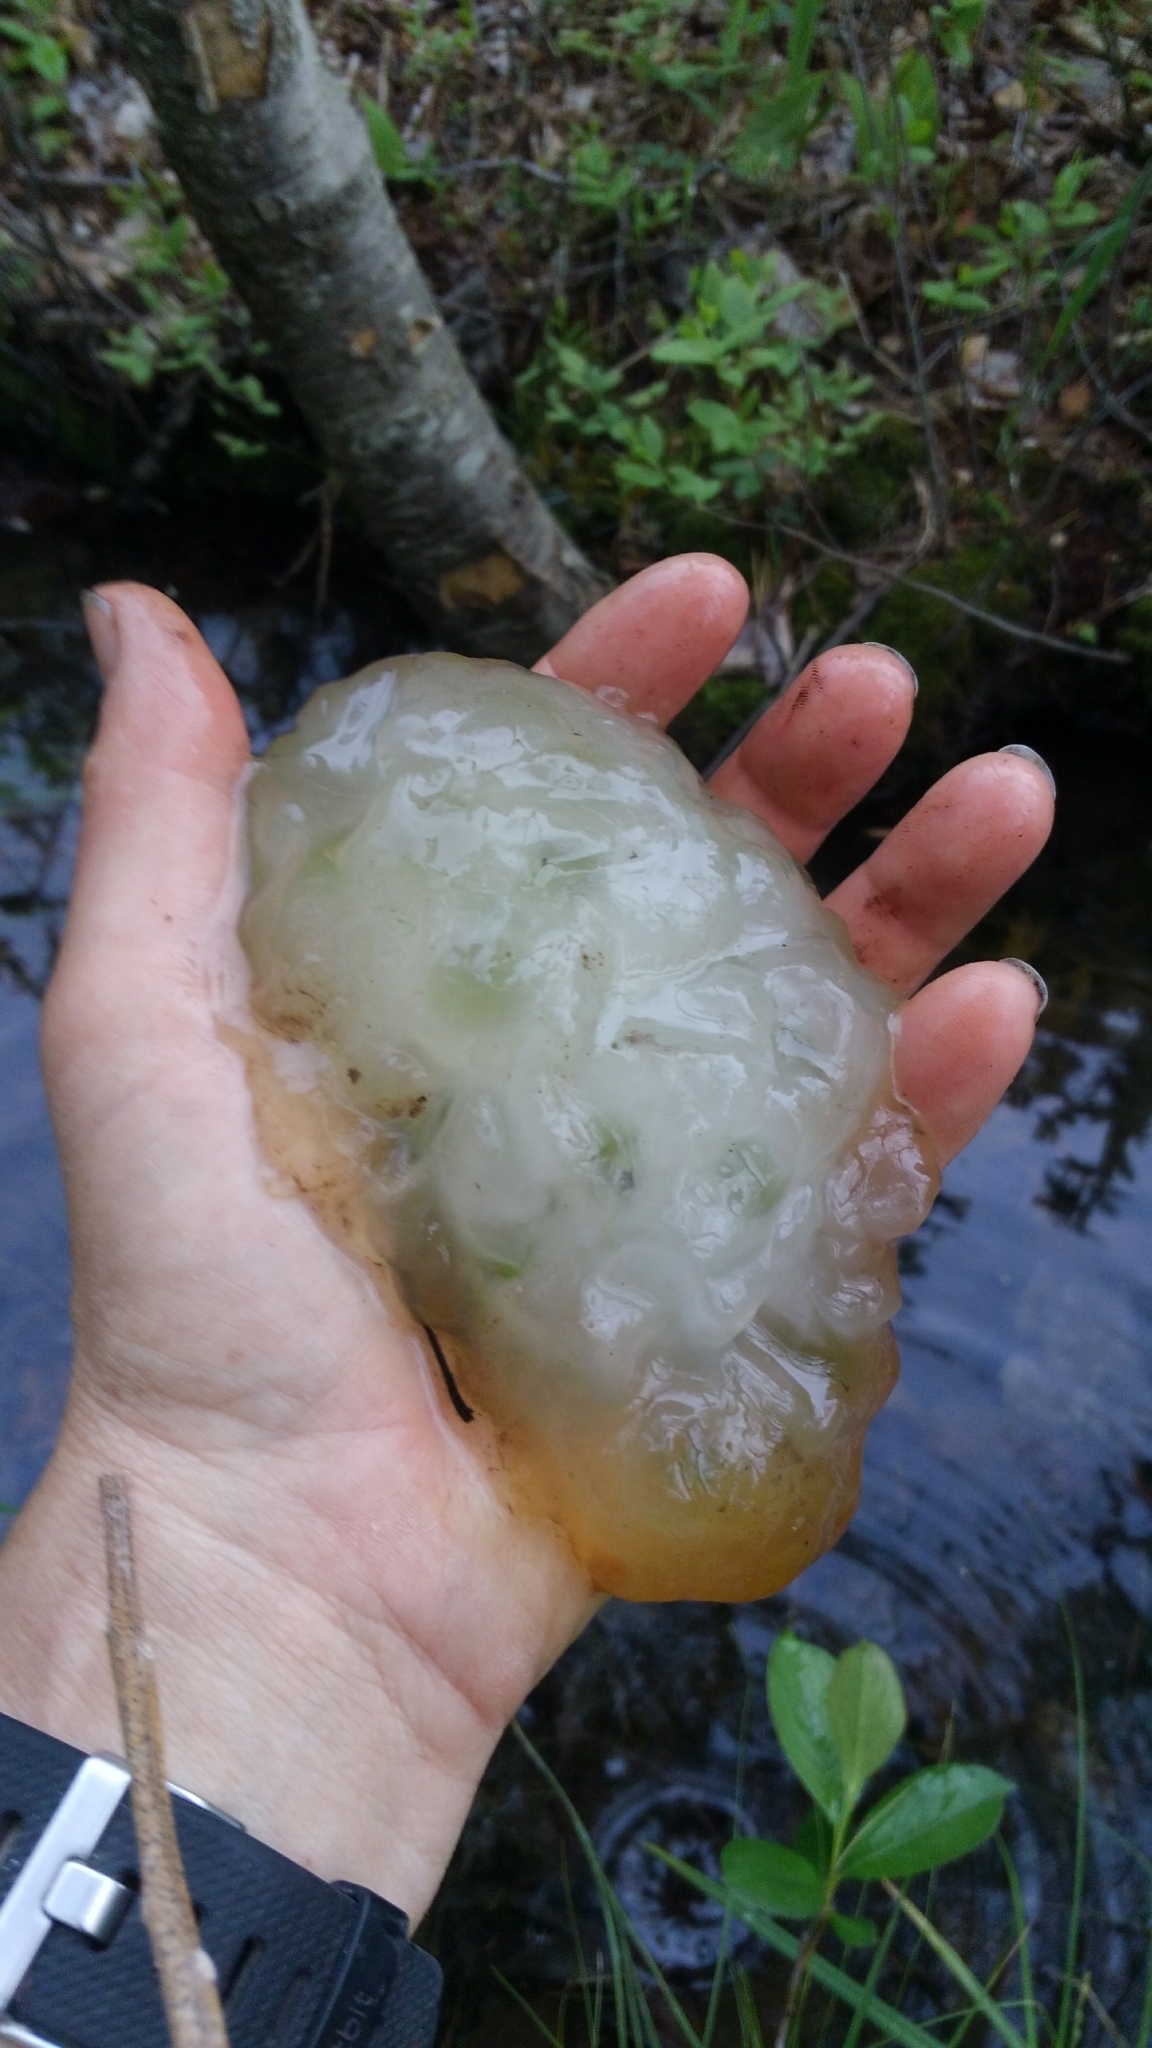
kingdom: Animalia
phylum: Chordata
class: Amphibia
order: Caudata
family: Ambystomatidae
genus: Ambystoma
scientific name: Ambystoma maculatum
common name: Spotted salamander
